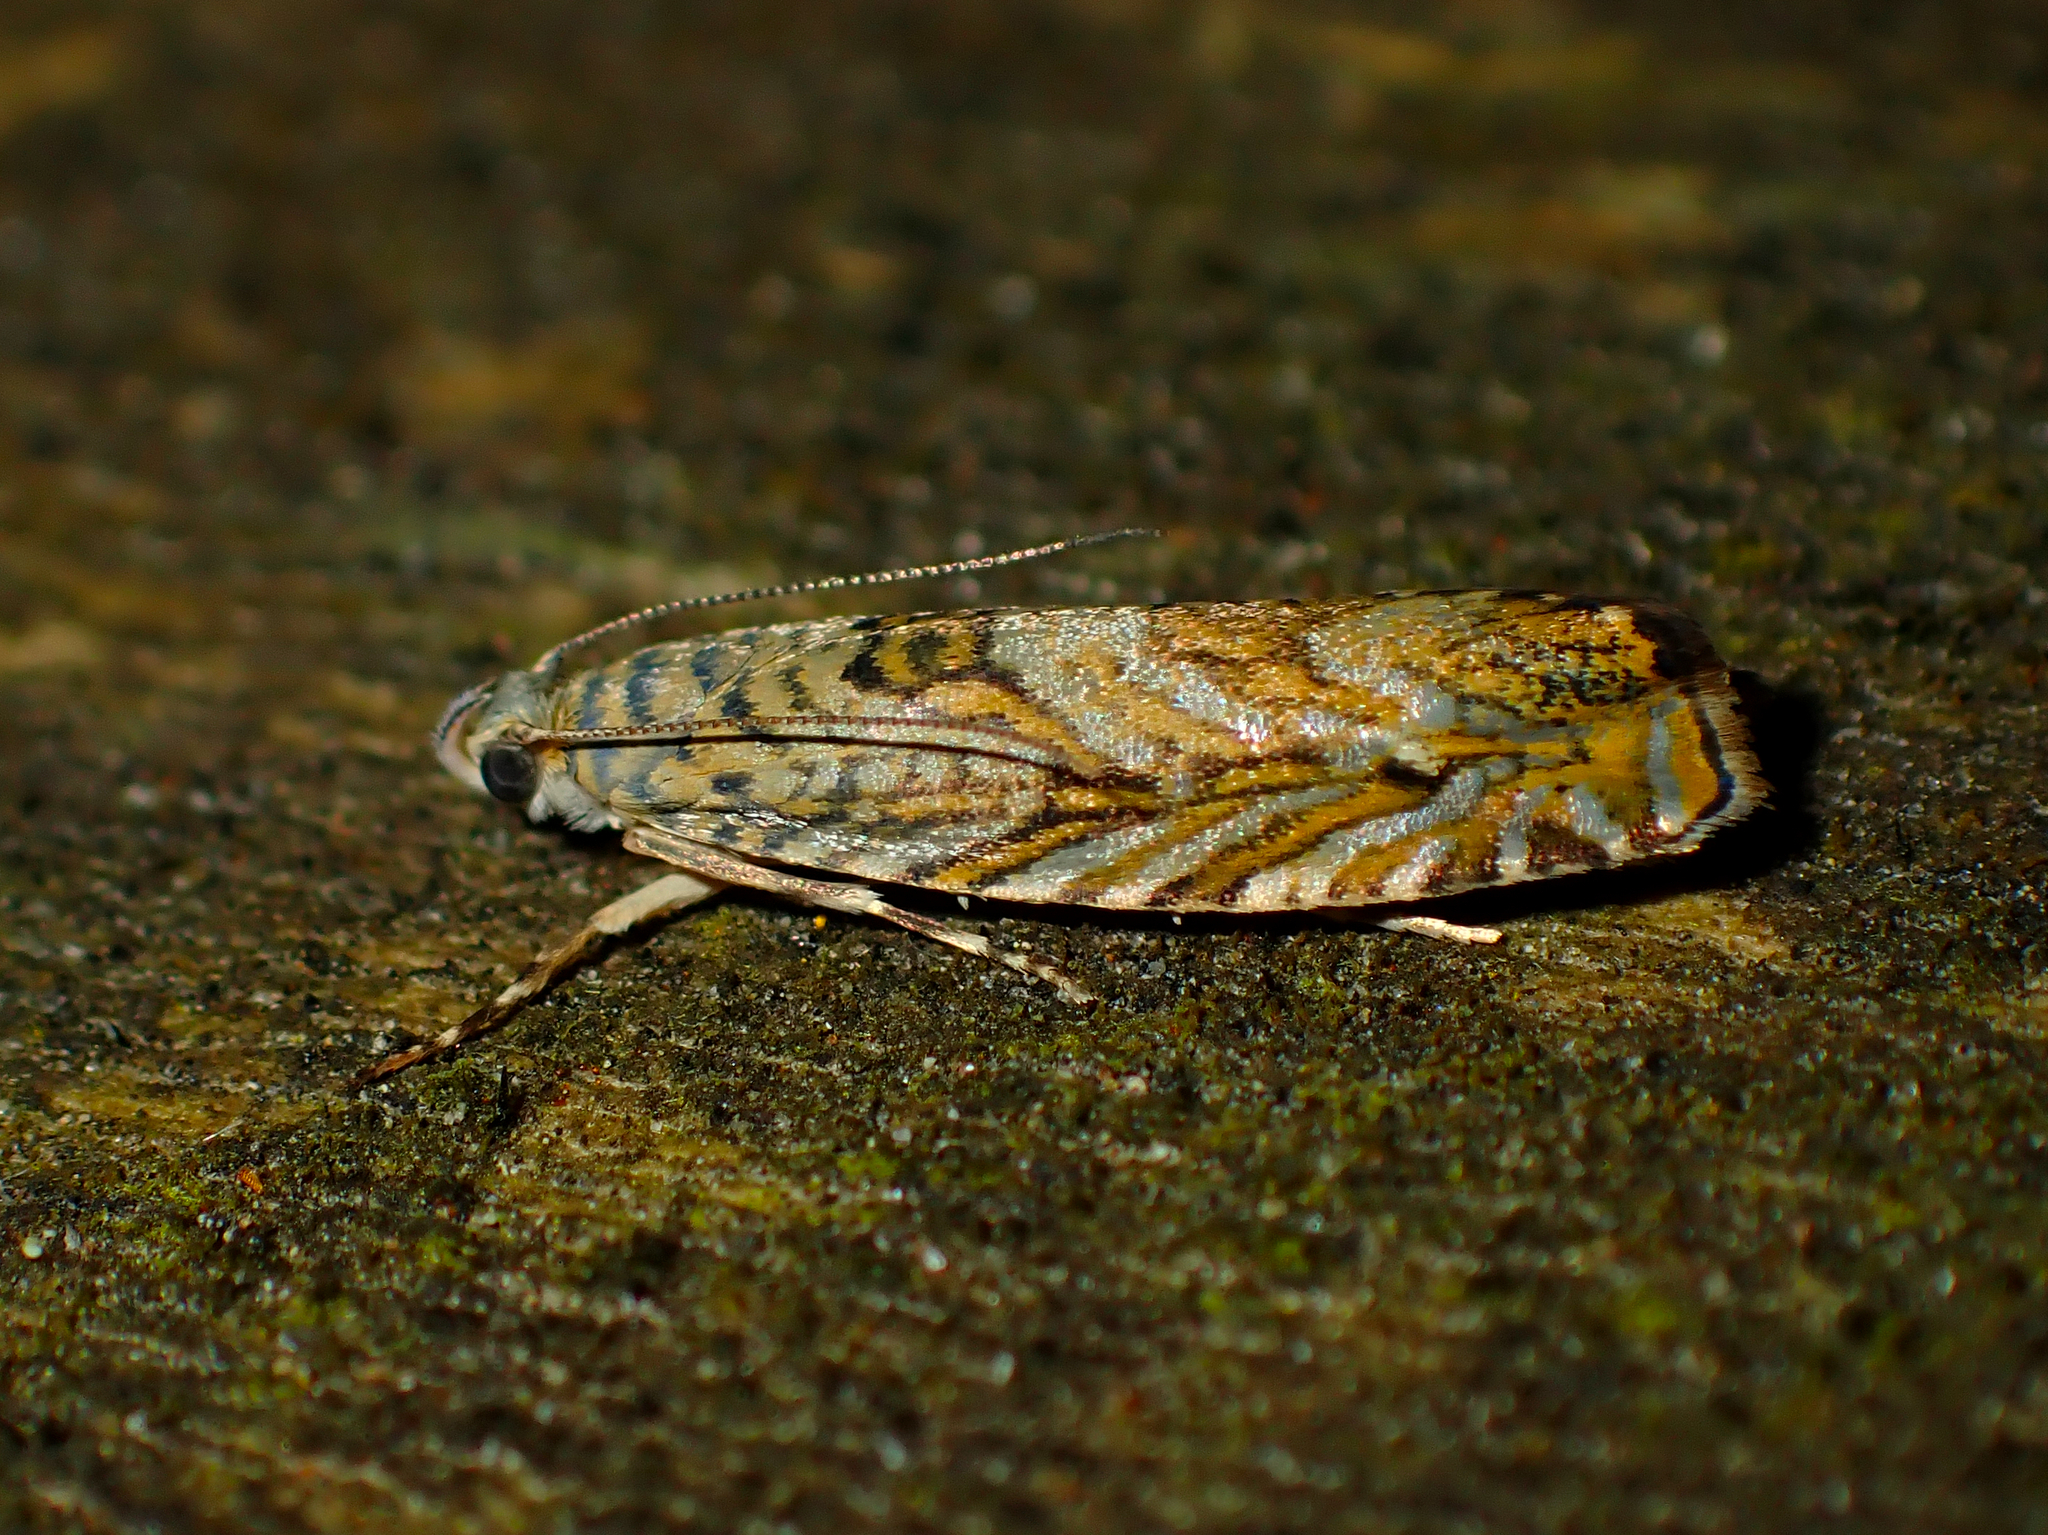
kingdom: Animalia
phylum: Arthropoda
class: Insecta
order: Lepidoptera
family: Plutellidae
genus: Doxophyrtis
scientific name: Doxophyrtis hydrocosma
